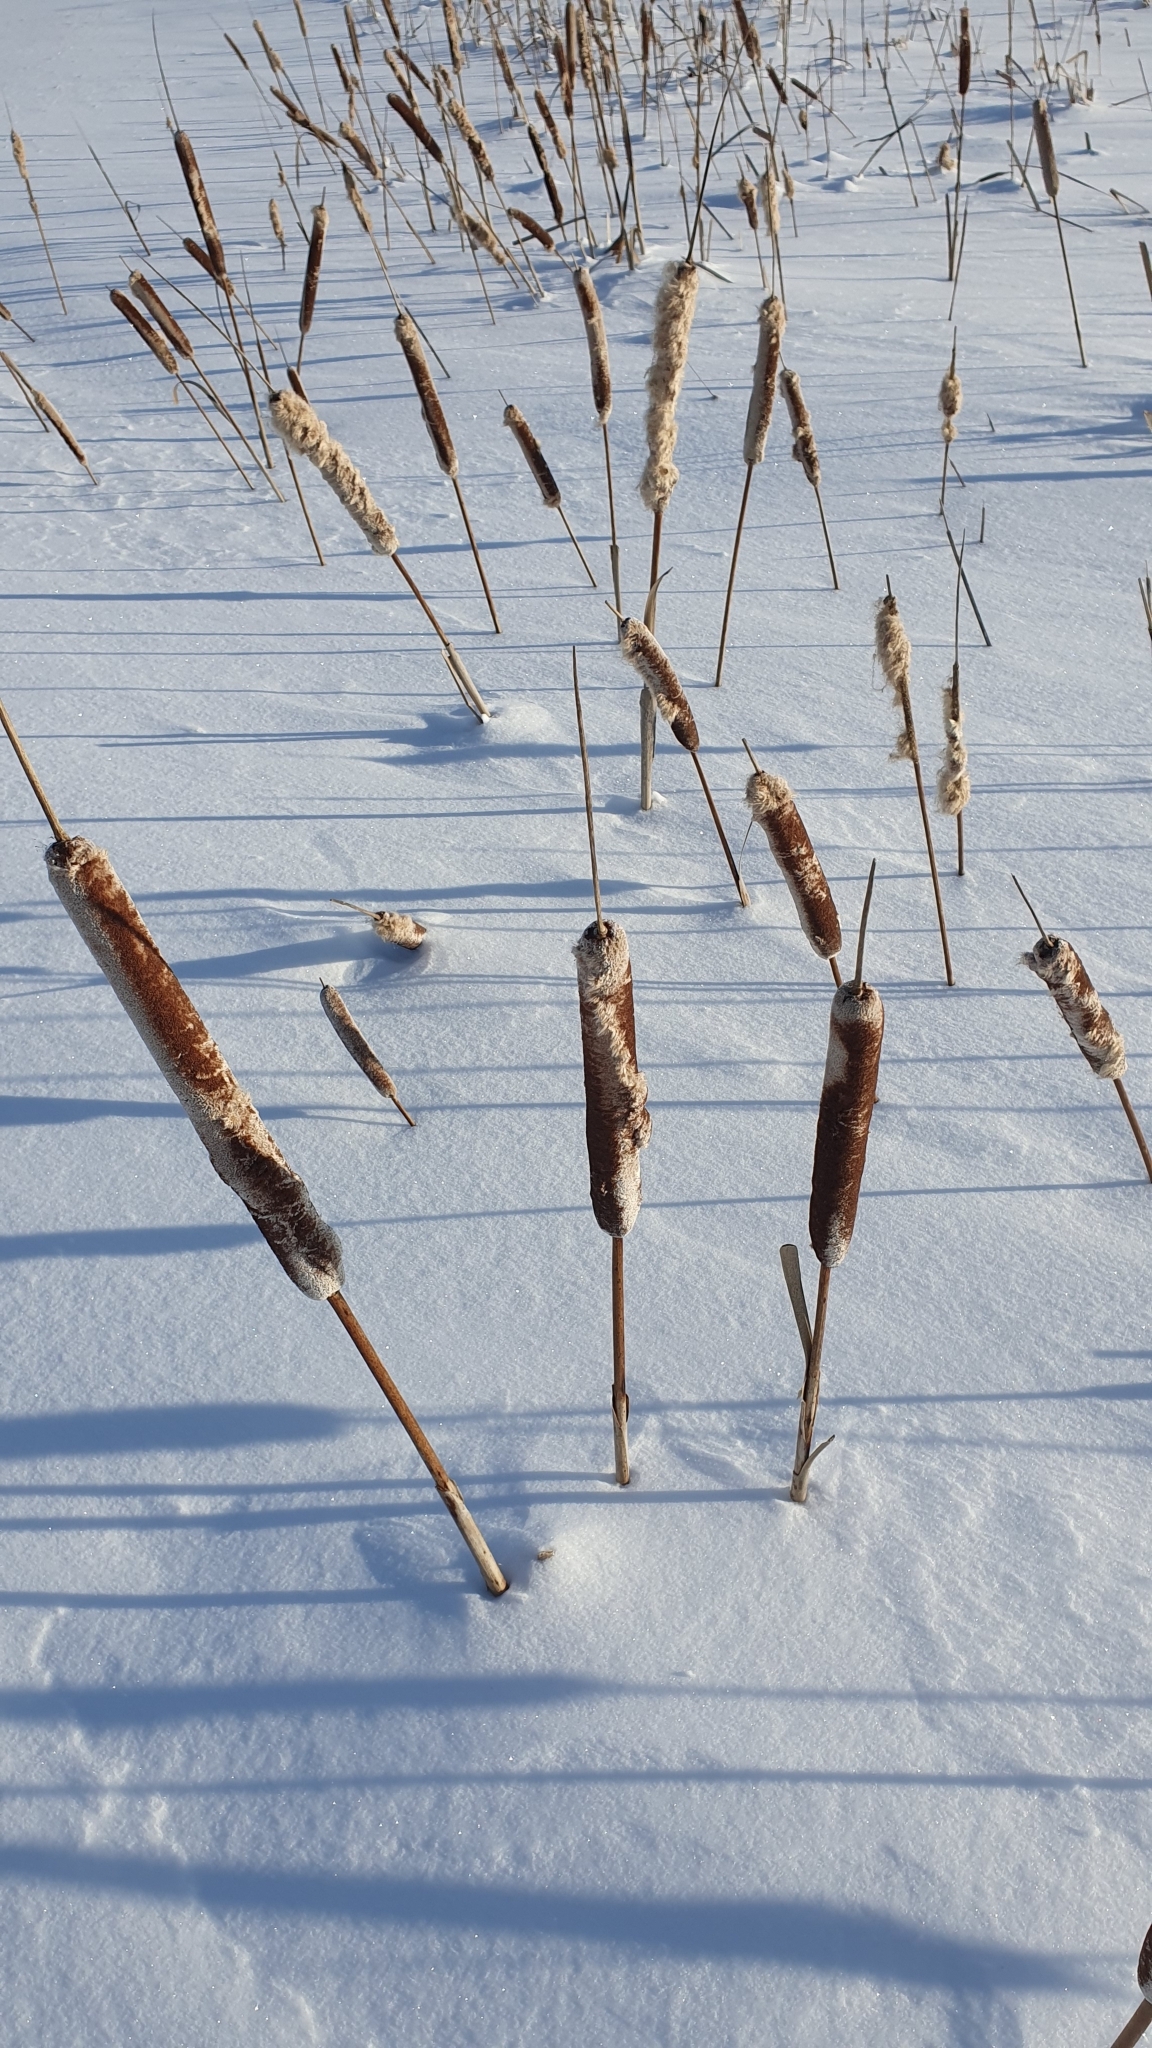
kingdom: Plantae
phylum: Tracheophyta
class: Liliopsida
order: Poales
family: Typhaceae
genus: Typha
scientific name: Typha latifolia
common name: Broadleaf cattail
